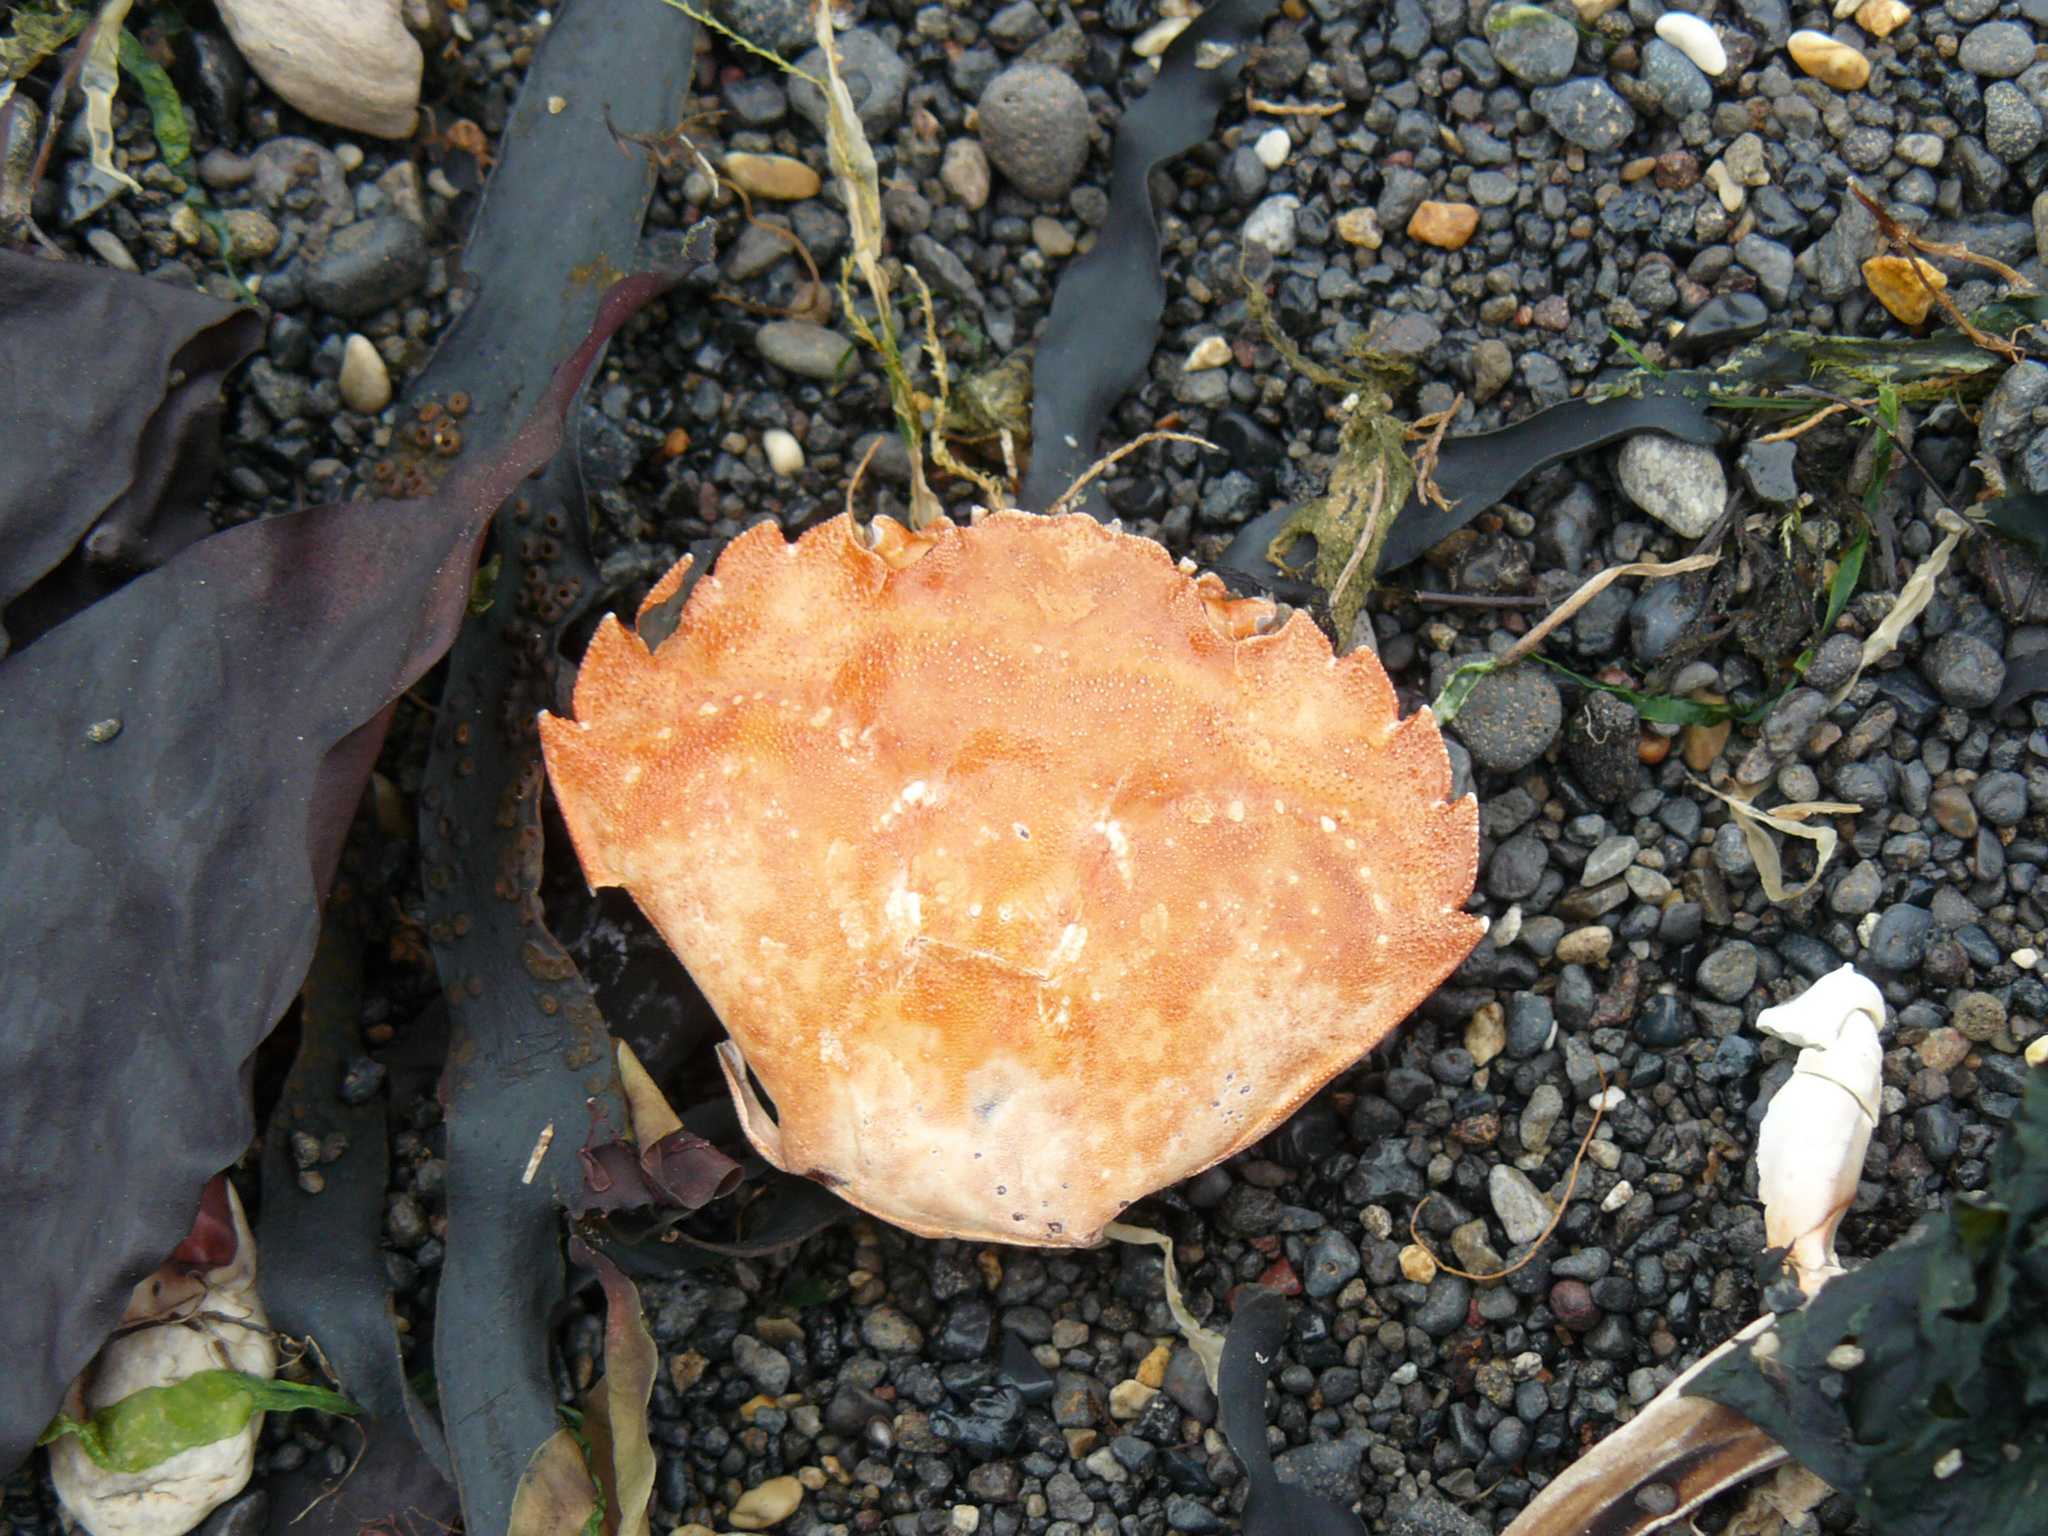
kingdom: Animalia
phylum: Arthropoda
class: Malacostraca
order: Decapoda
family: Carcinidae
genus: Carcinus
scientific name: Carcinus maenas
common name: European green crab
